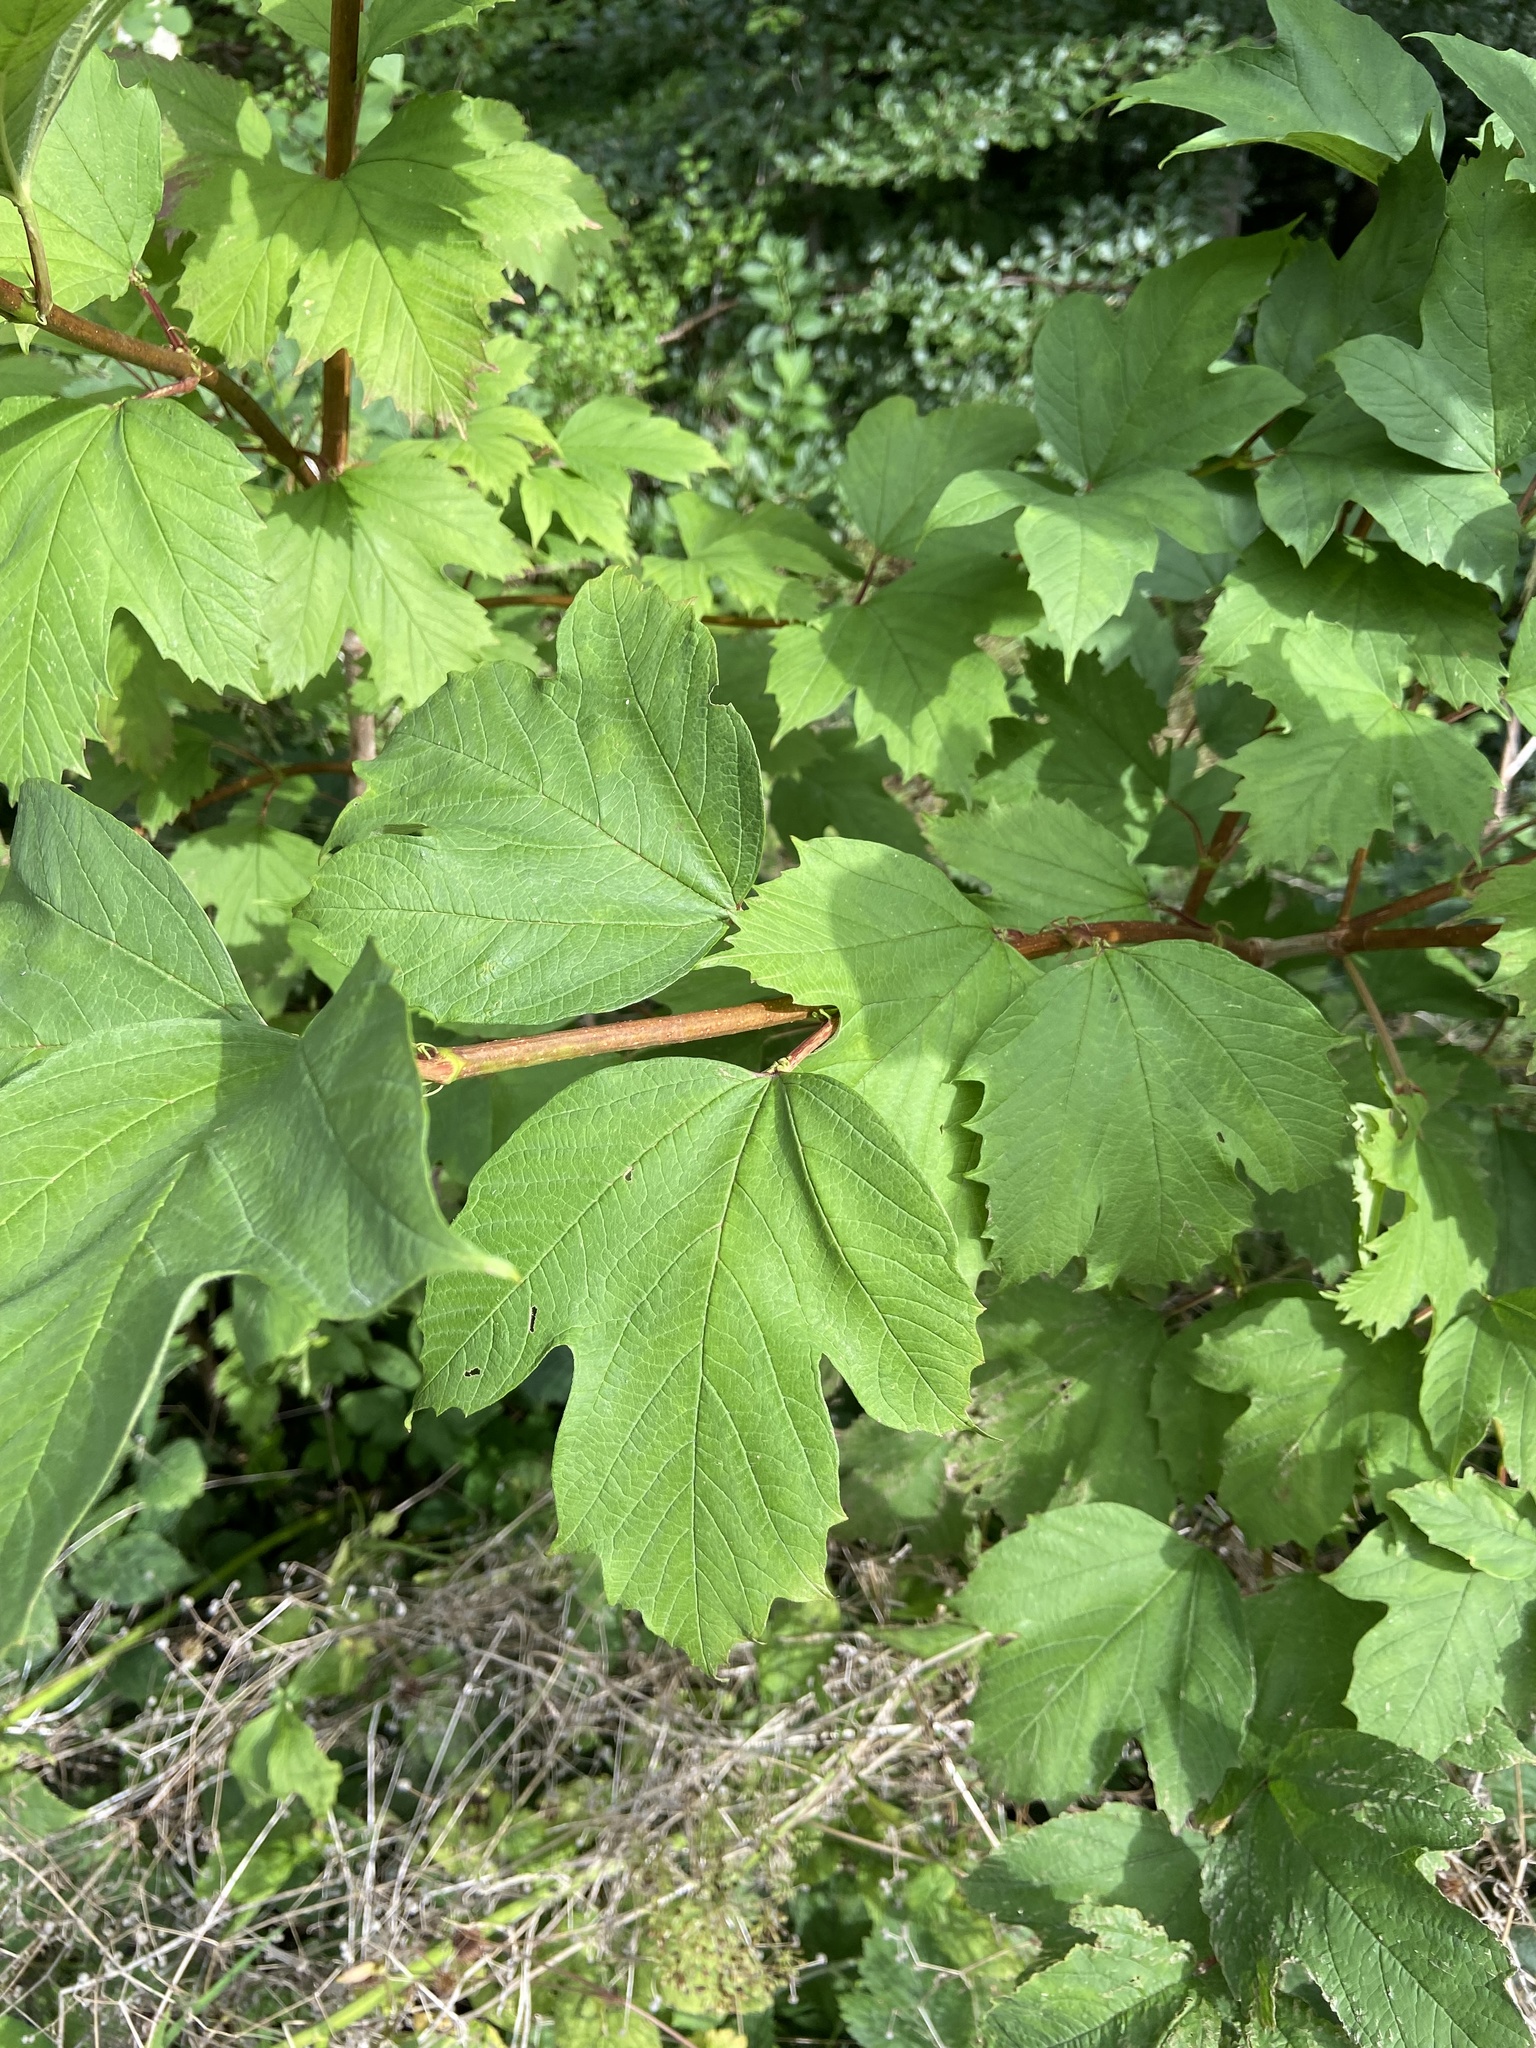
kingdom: Plantae
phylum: Tracheophyta
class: Magnoliopsida
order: Dipsacales
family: Viburnaceae
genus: Viburnum
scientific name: Viburnum opulus
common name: Guelder-rose
